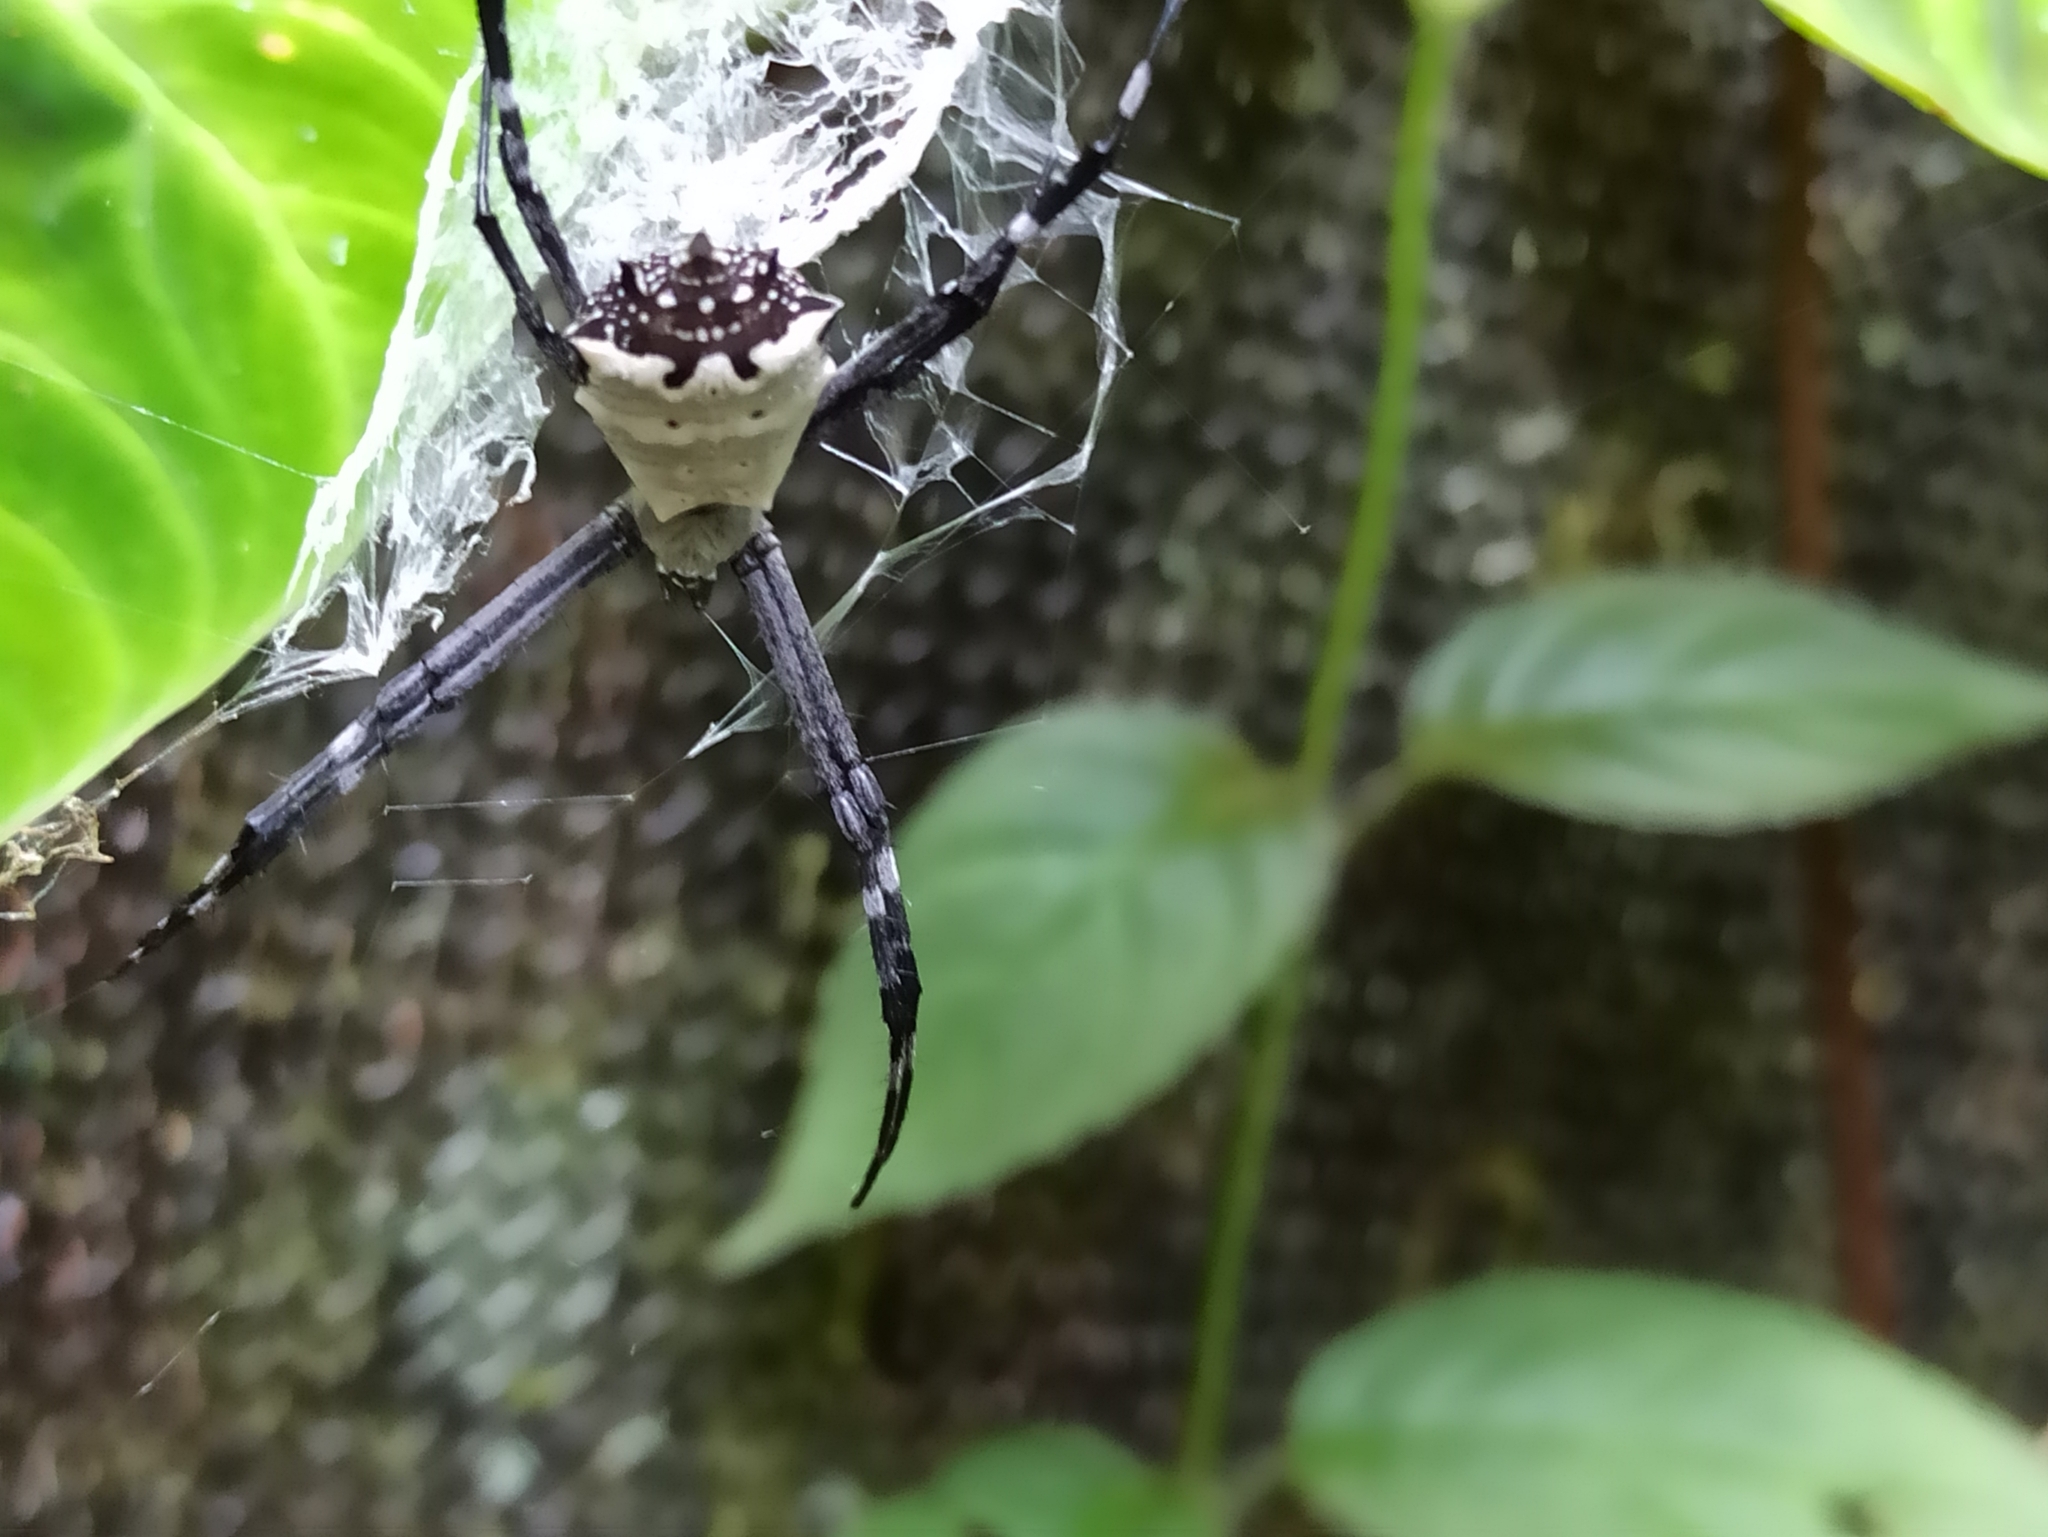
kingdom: Animalia
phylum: Arthropoda
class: Arachnida
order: Araneae
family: Araneidae
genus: Argiope
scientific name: Argiope submaronica
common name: Orb weavers
